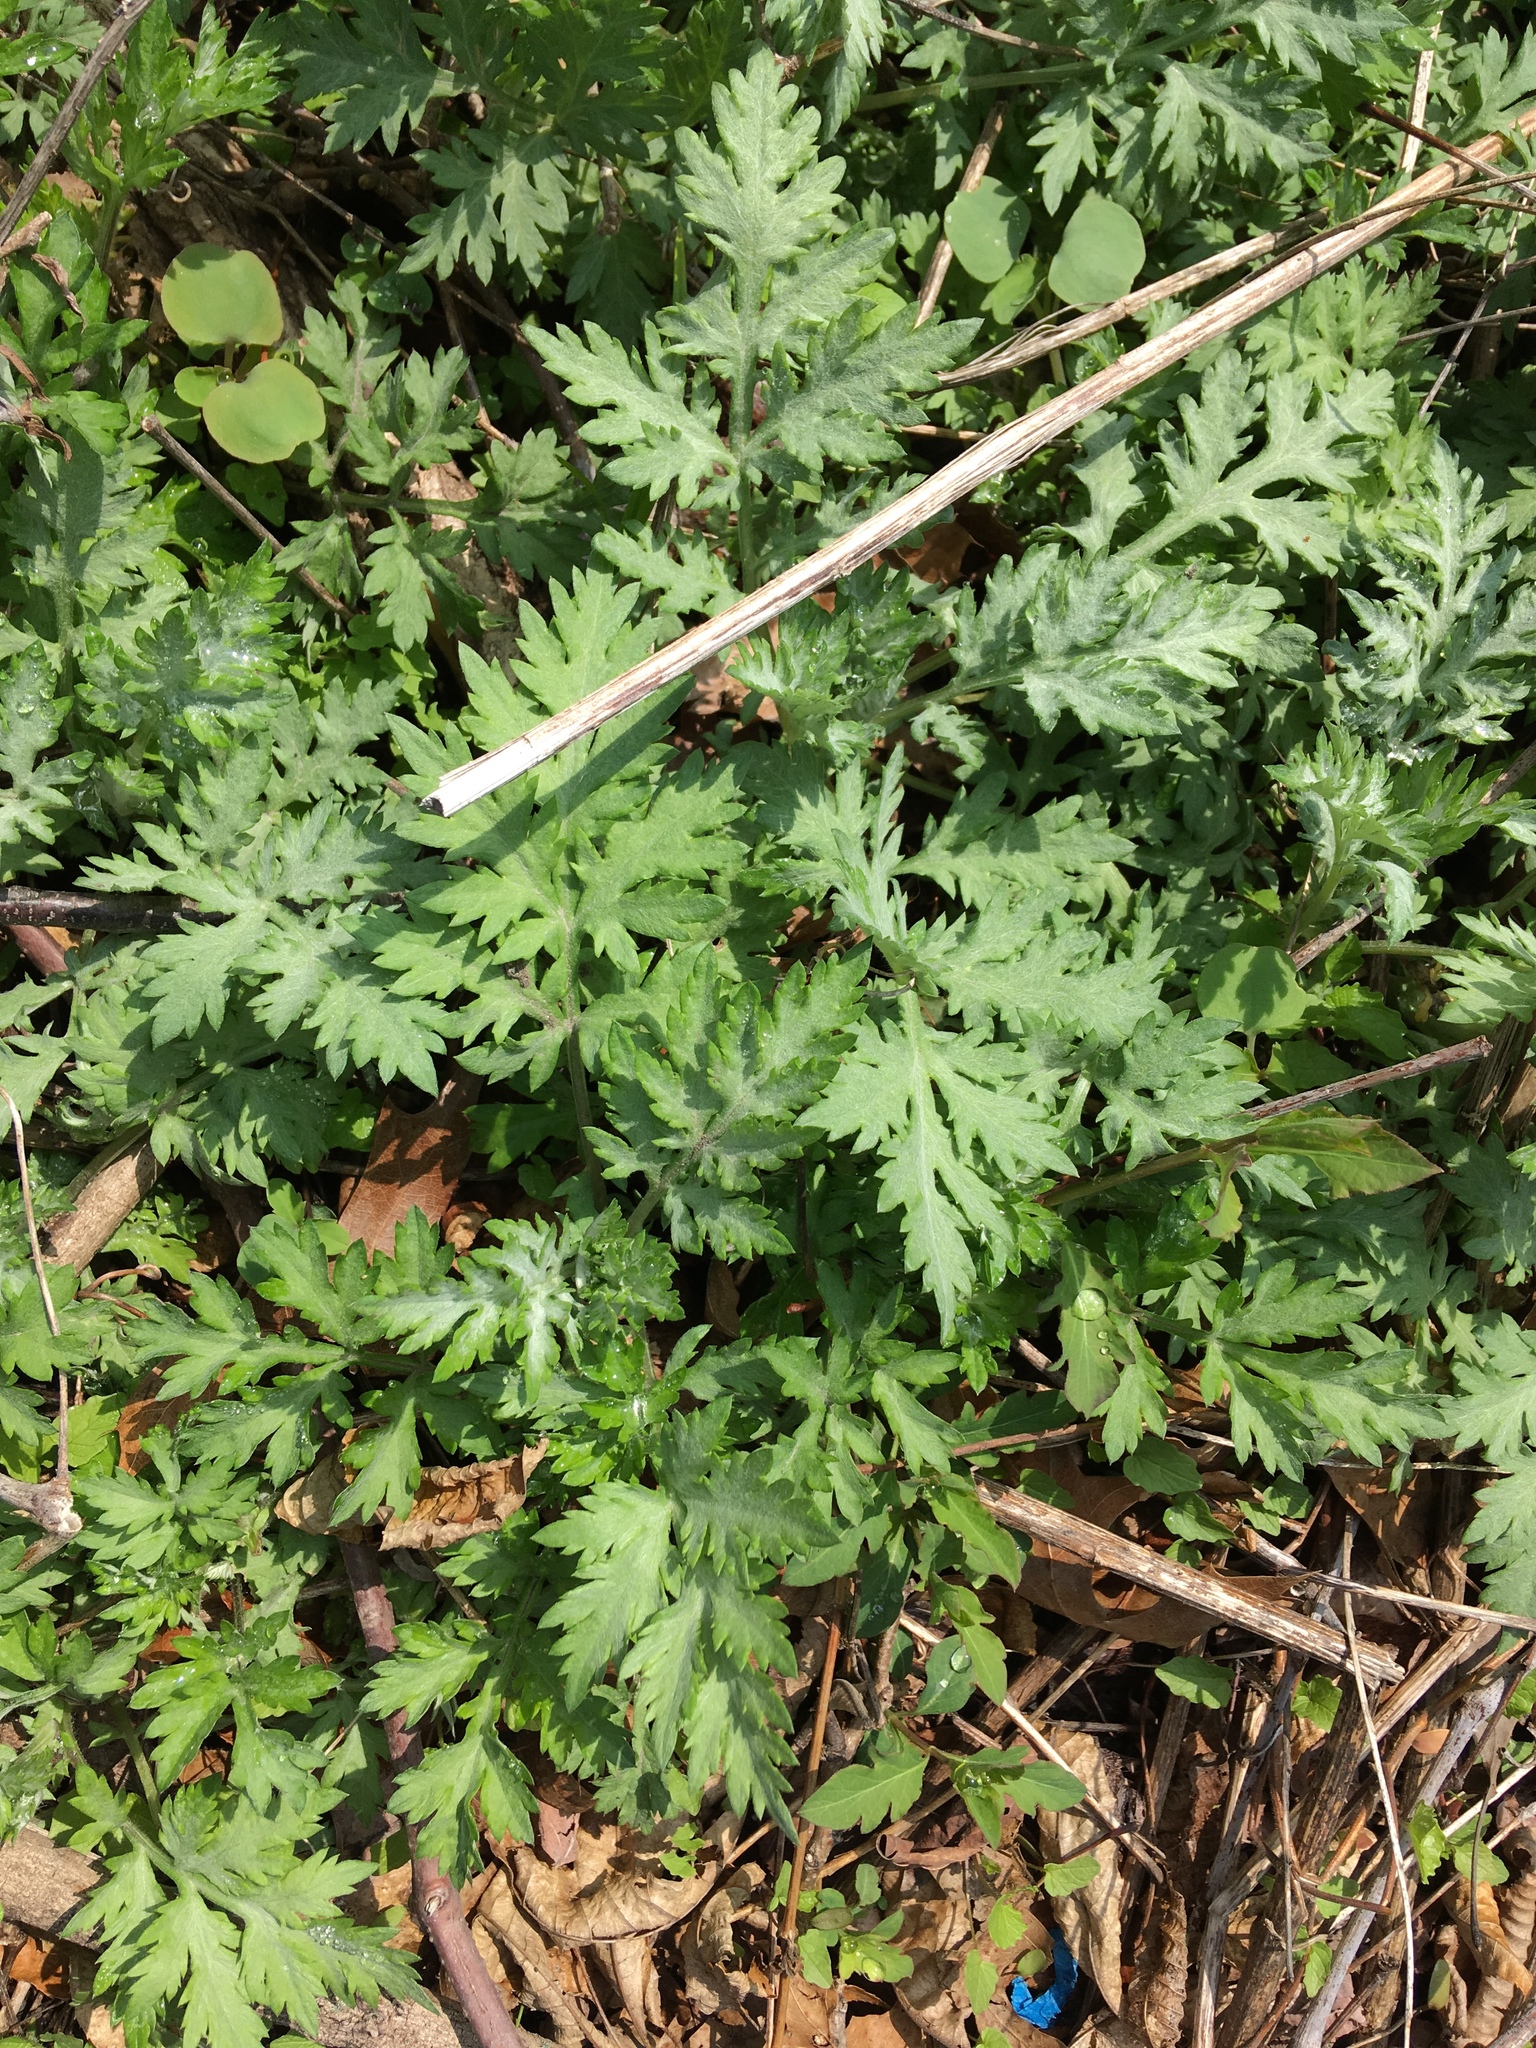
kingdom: Plantae
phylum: Tracheophyta
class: Magnoliopsida
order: Asterales
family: Asteraceae
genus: Artemisia
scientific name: Artemisia vulgaris
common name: Mugwort
